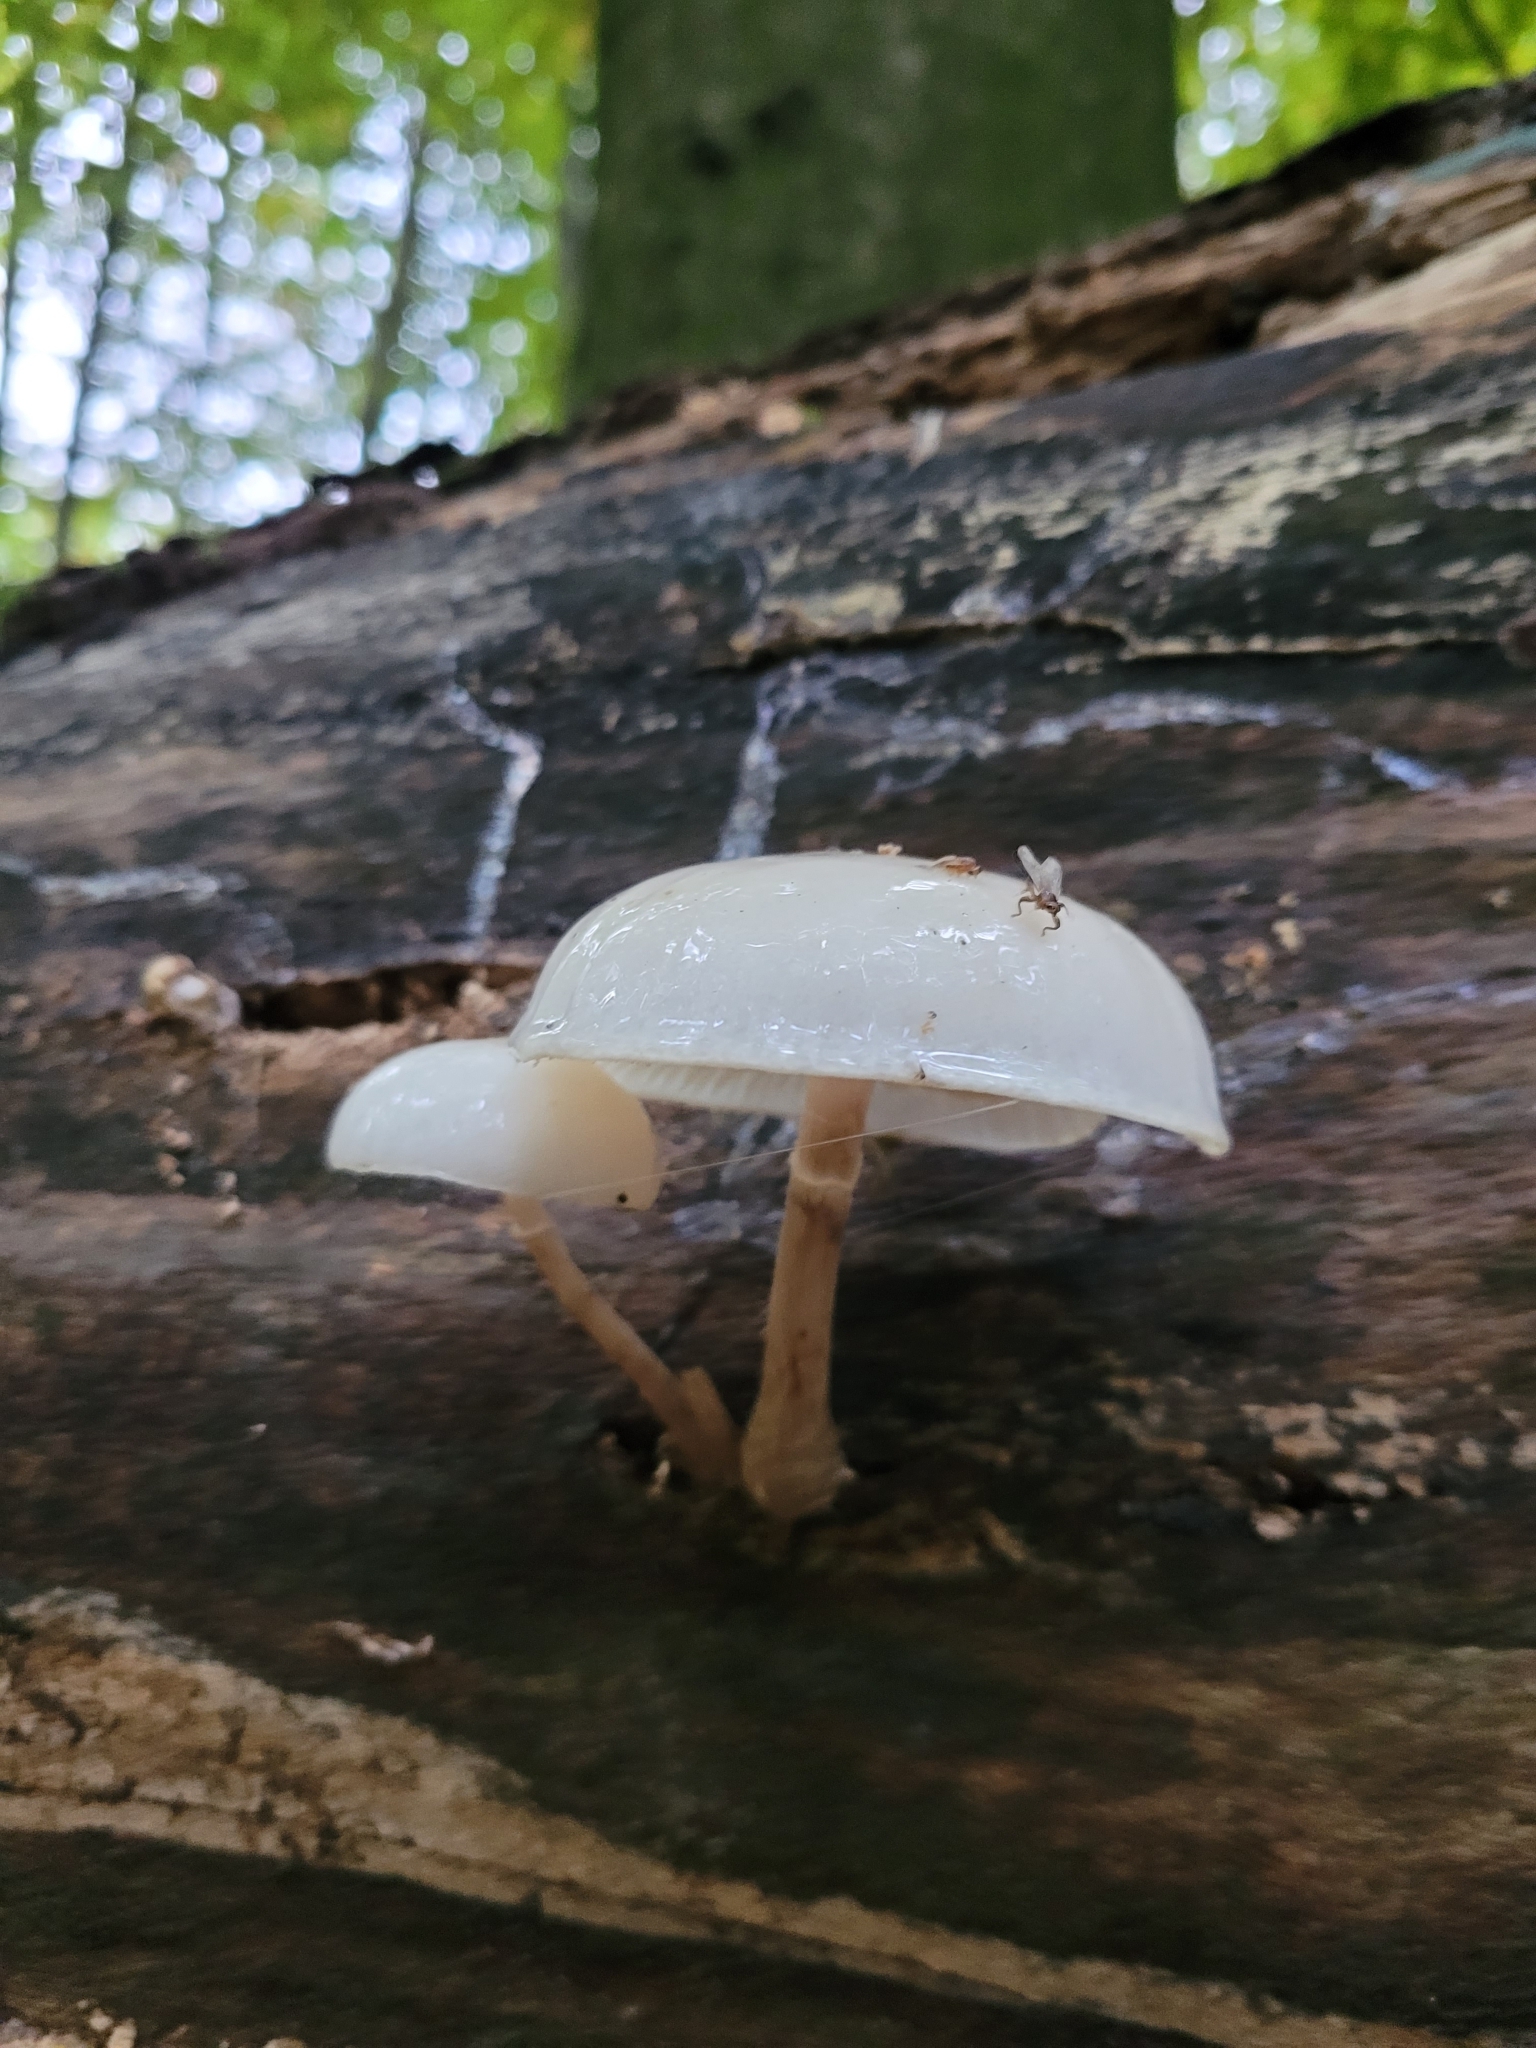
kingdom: Fungi
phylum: Basidiomycota
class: Agaricomycetes
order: Agaricales
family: Physalacriaceae
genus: Mucidula
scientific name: Mucidula mucida
